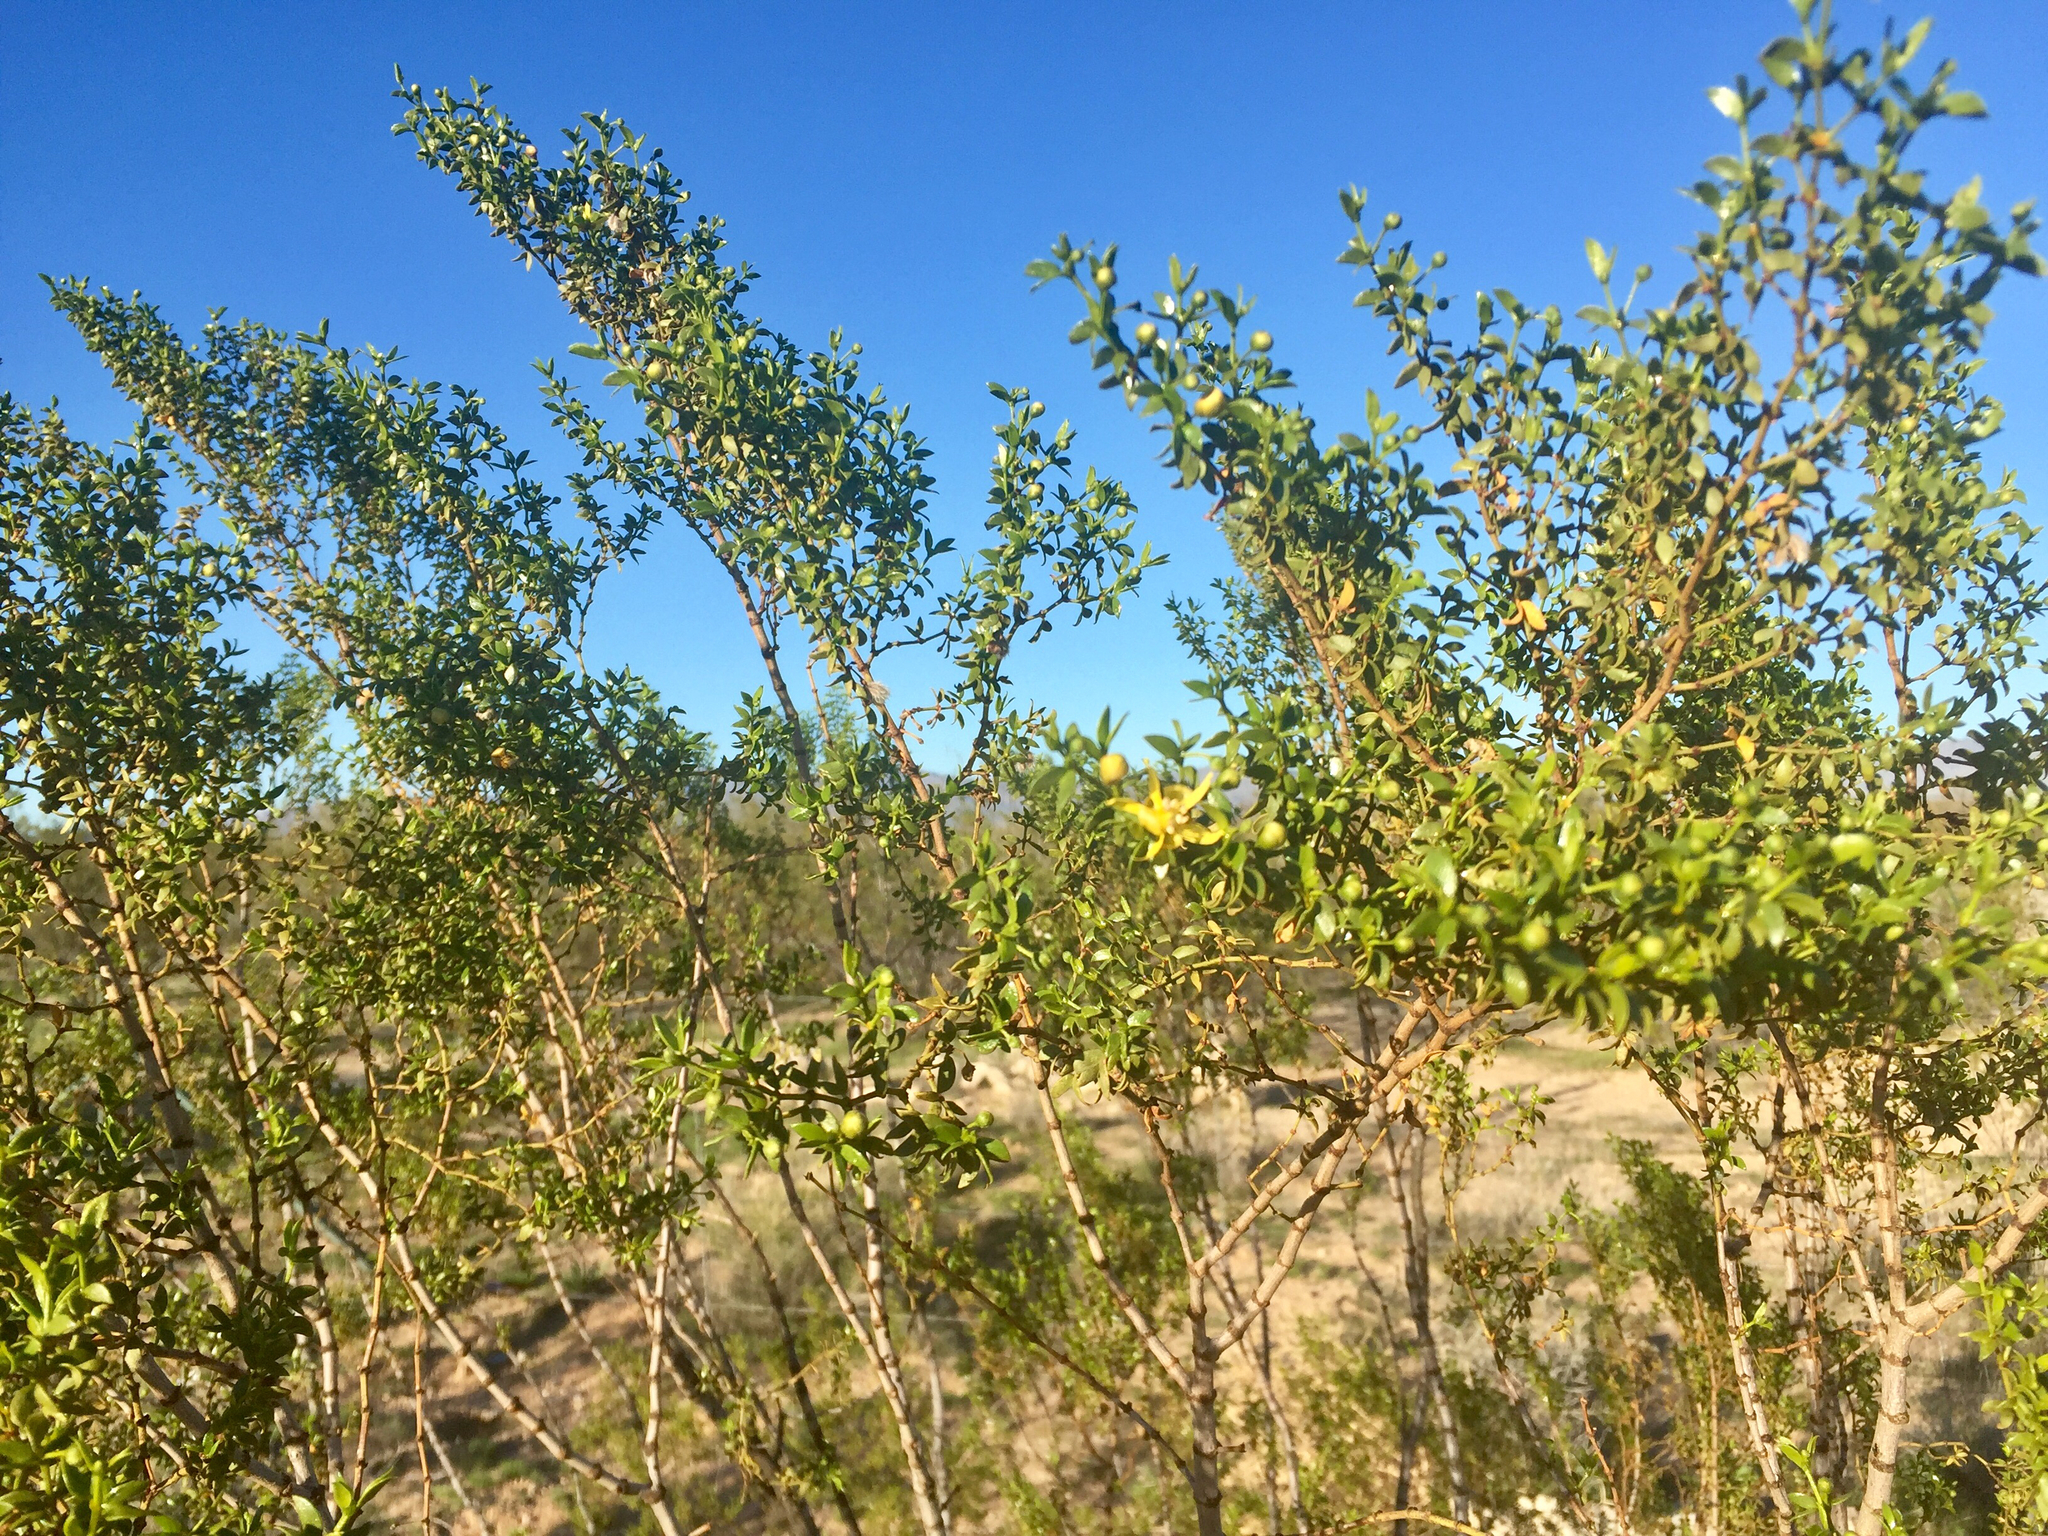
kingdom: Plantae
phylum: Tracheophyta
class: Magnoliopsida
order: Zygophyllales
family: Zygophyllaceae
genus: Larrea
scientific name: Larrea tridentata
